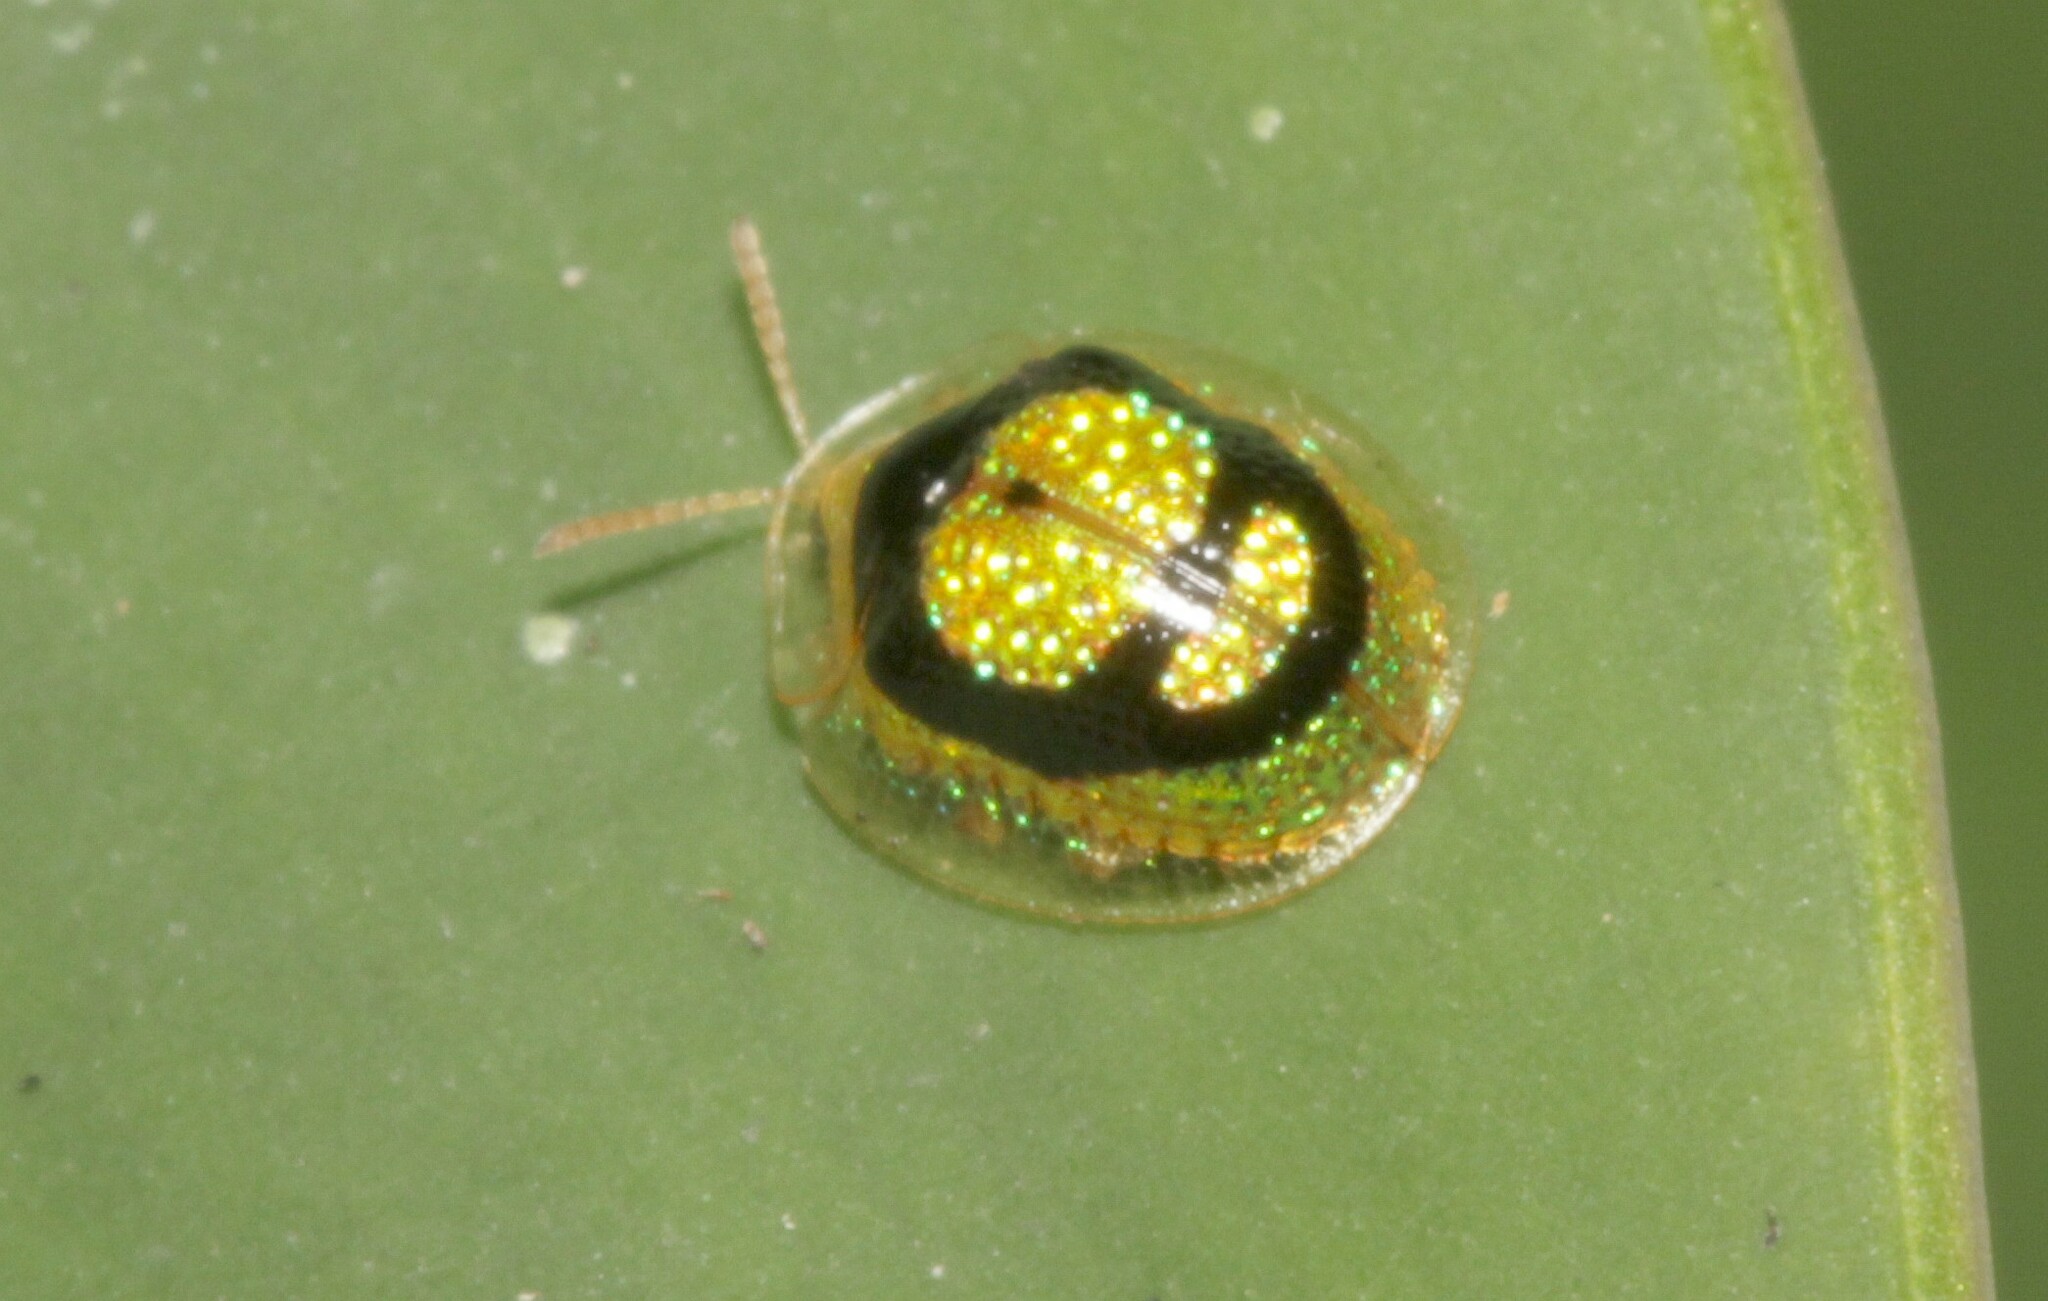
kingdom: Animalia
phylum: Arthropoda
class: Insecta
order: Coleoptera
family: Chrysomelidae
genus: Charidotis
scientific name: Charidotis porosula
